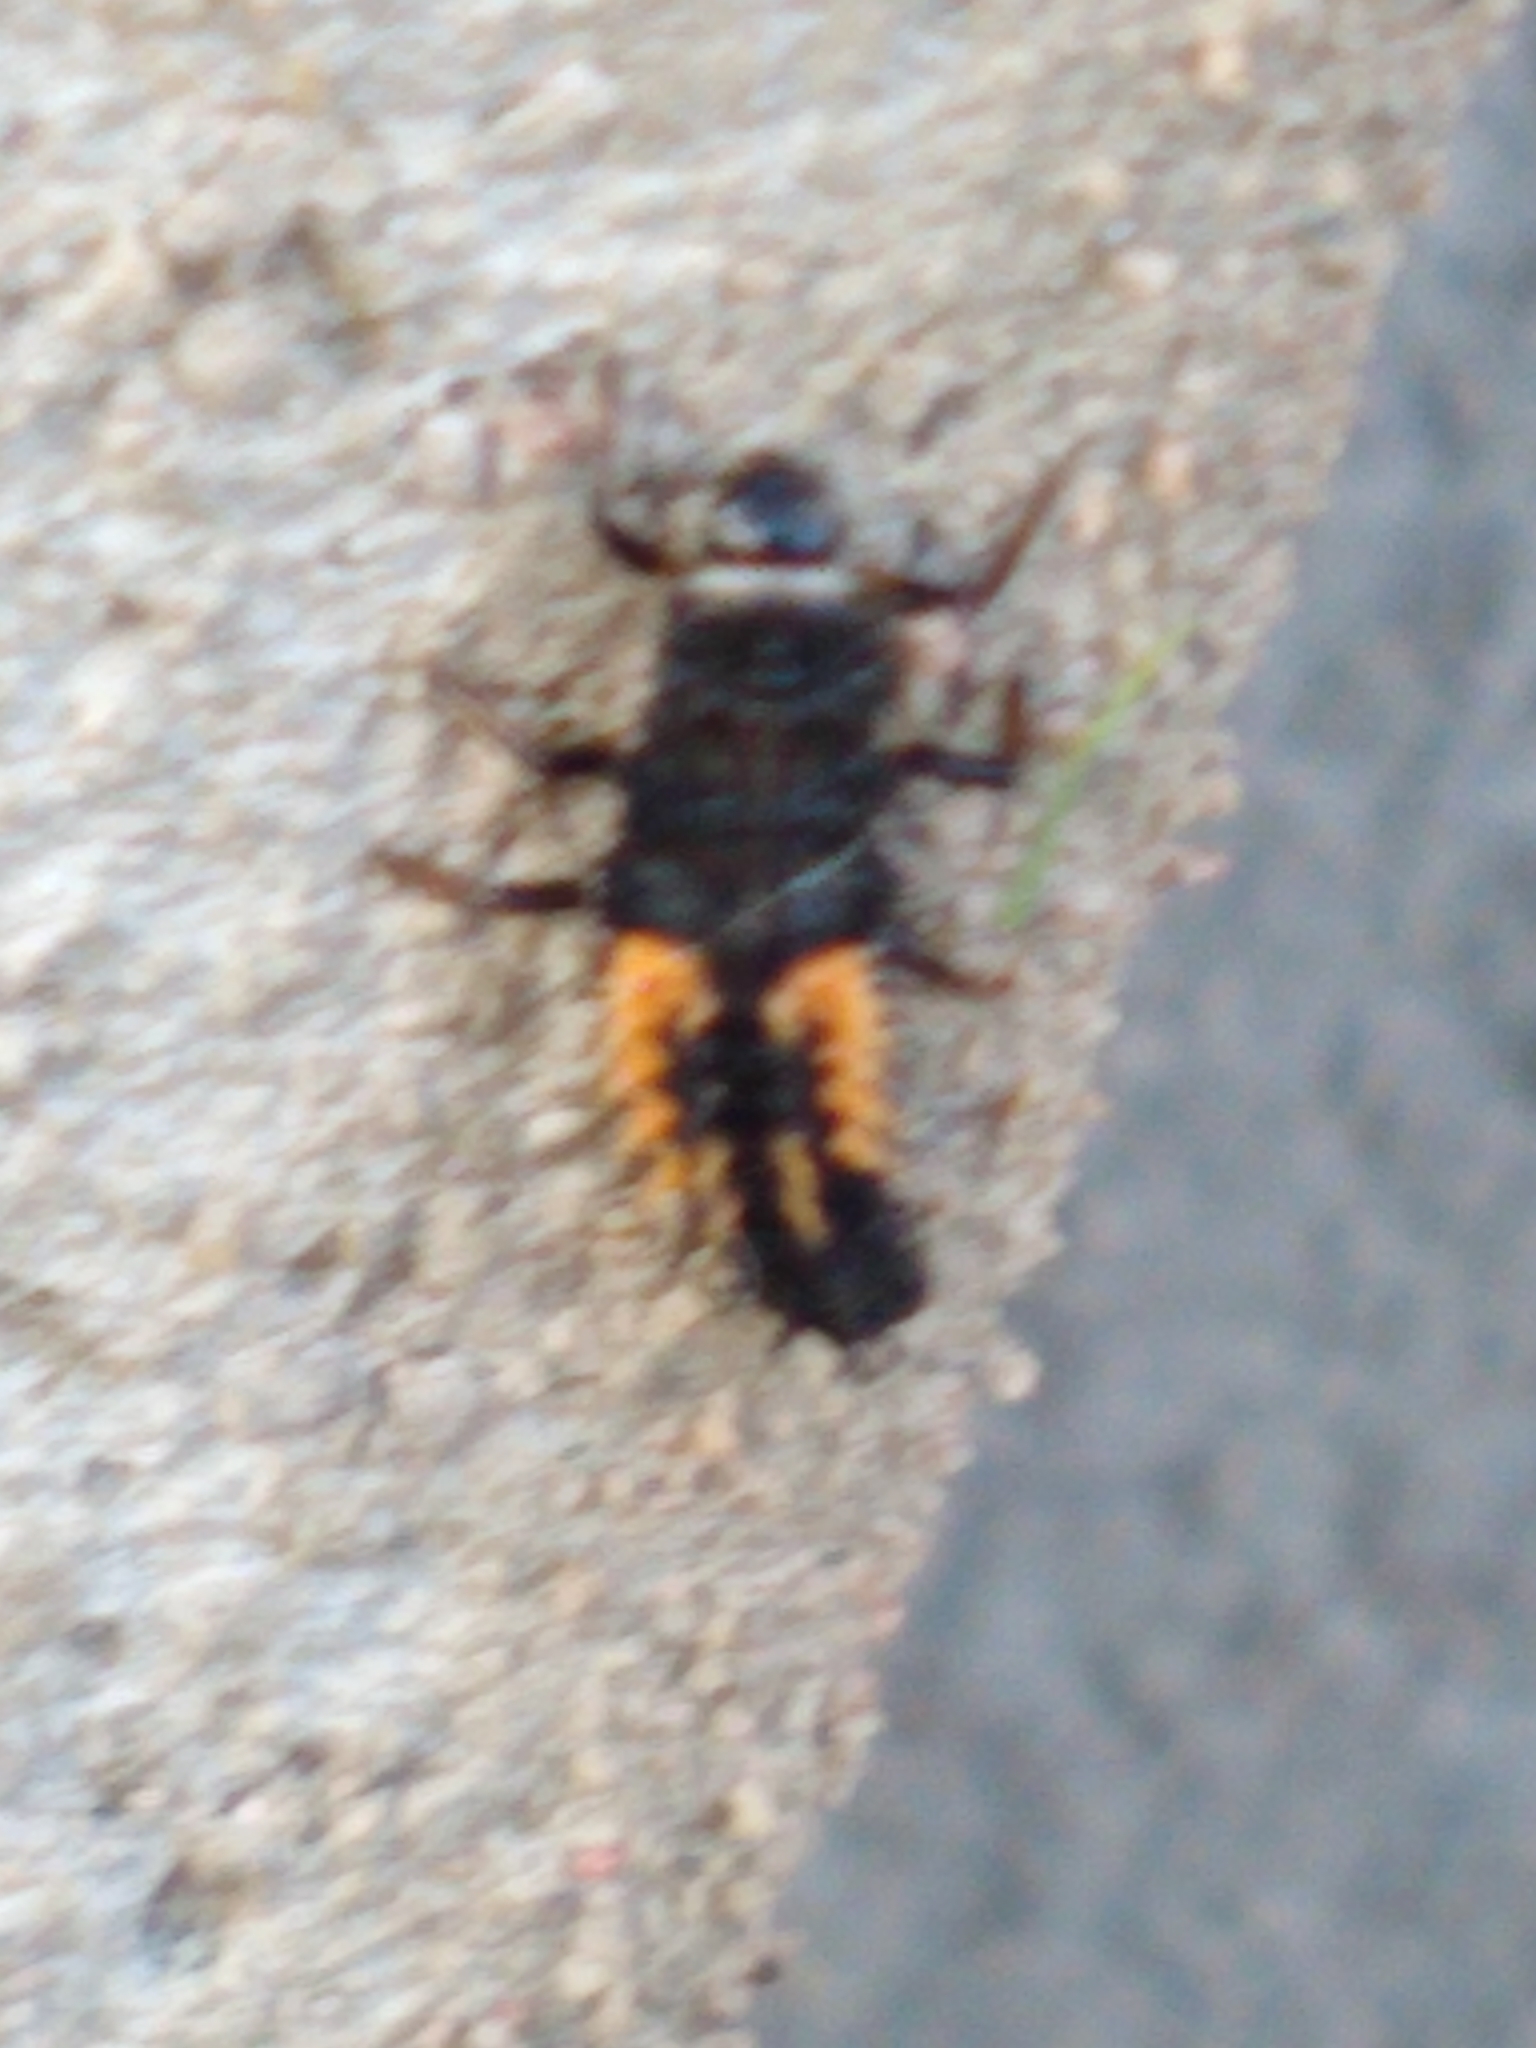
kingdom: Animalia
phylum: Arthropoda
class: Insecta
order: Coleoptera
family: Coccinellidae
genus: Harmonia
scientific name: Harmonia axyridis
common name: Harlequin ladybird
